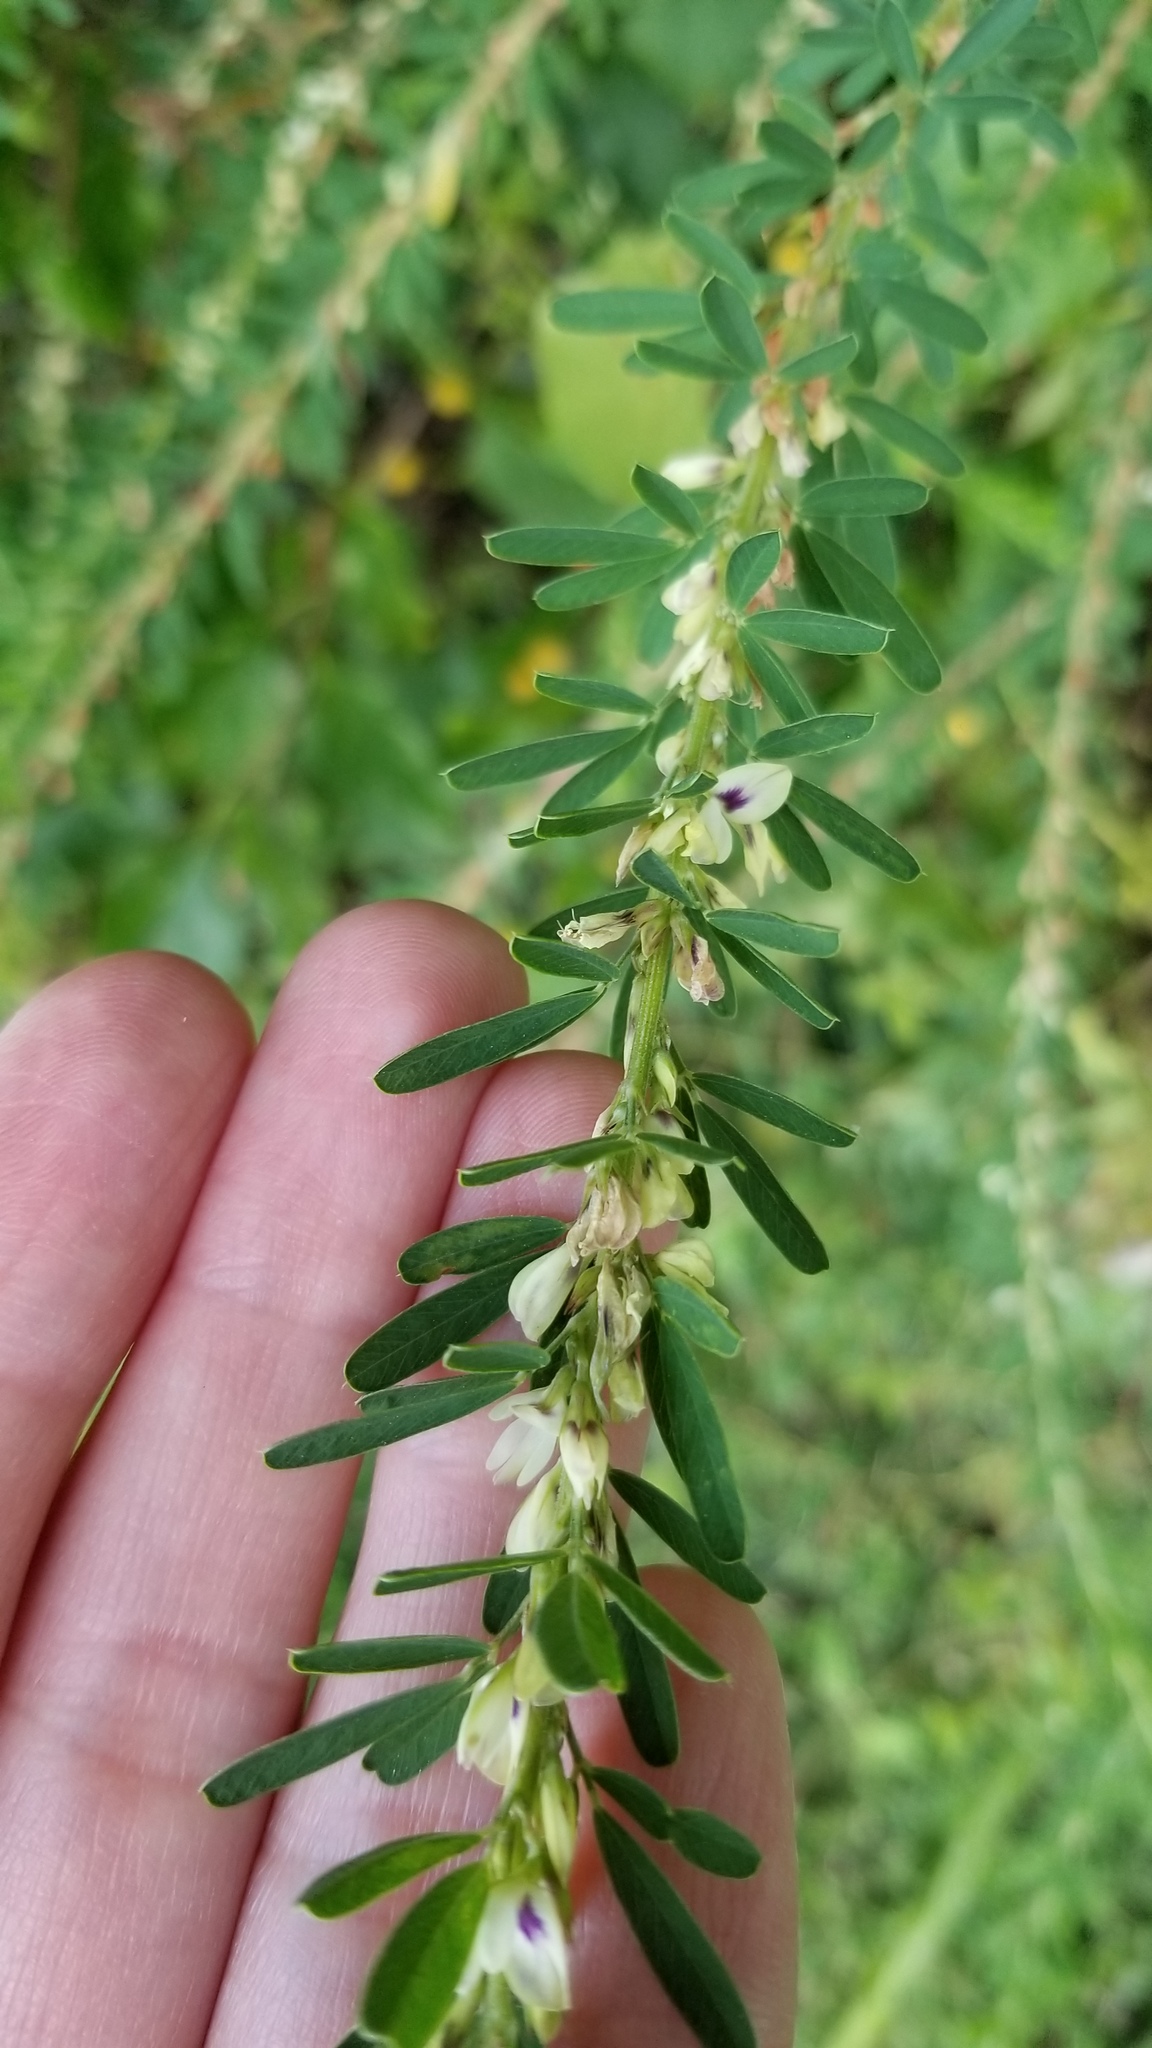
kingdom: Plantae
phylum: Tracheophyta
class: Magnoliopsida
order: Fabales
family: Fabaceae
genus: Lespedeza
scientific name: Lespedeza cuneata
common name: Chinese bush-clover
